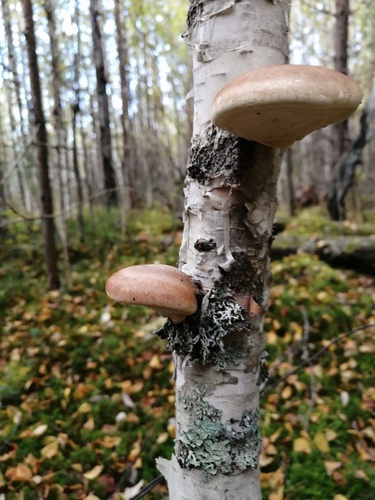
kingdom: Fungi
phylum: Basidiomycota
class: Agaricomycetes
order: Polyporales
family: Fomitopsidaceae
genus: Fomitopsis
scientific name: Fomitopsis betulina
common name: Birch polypore
